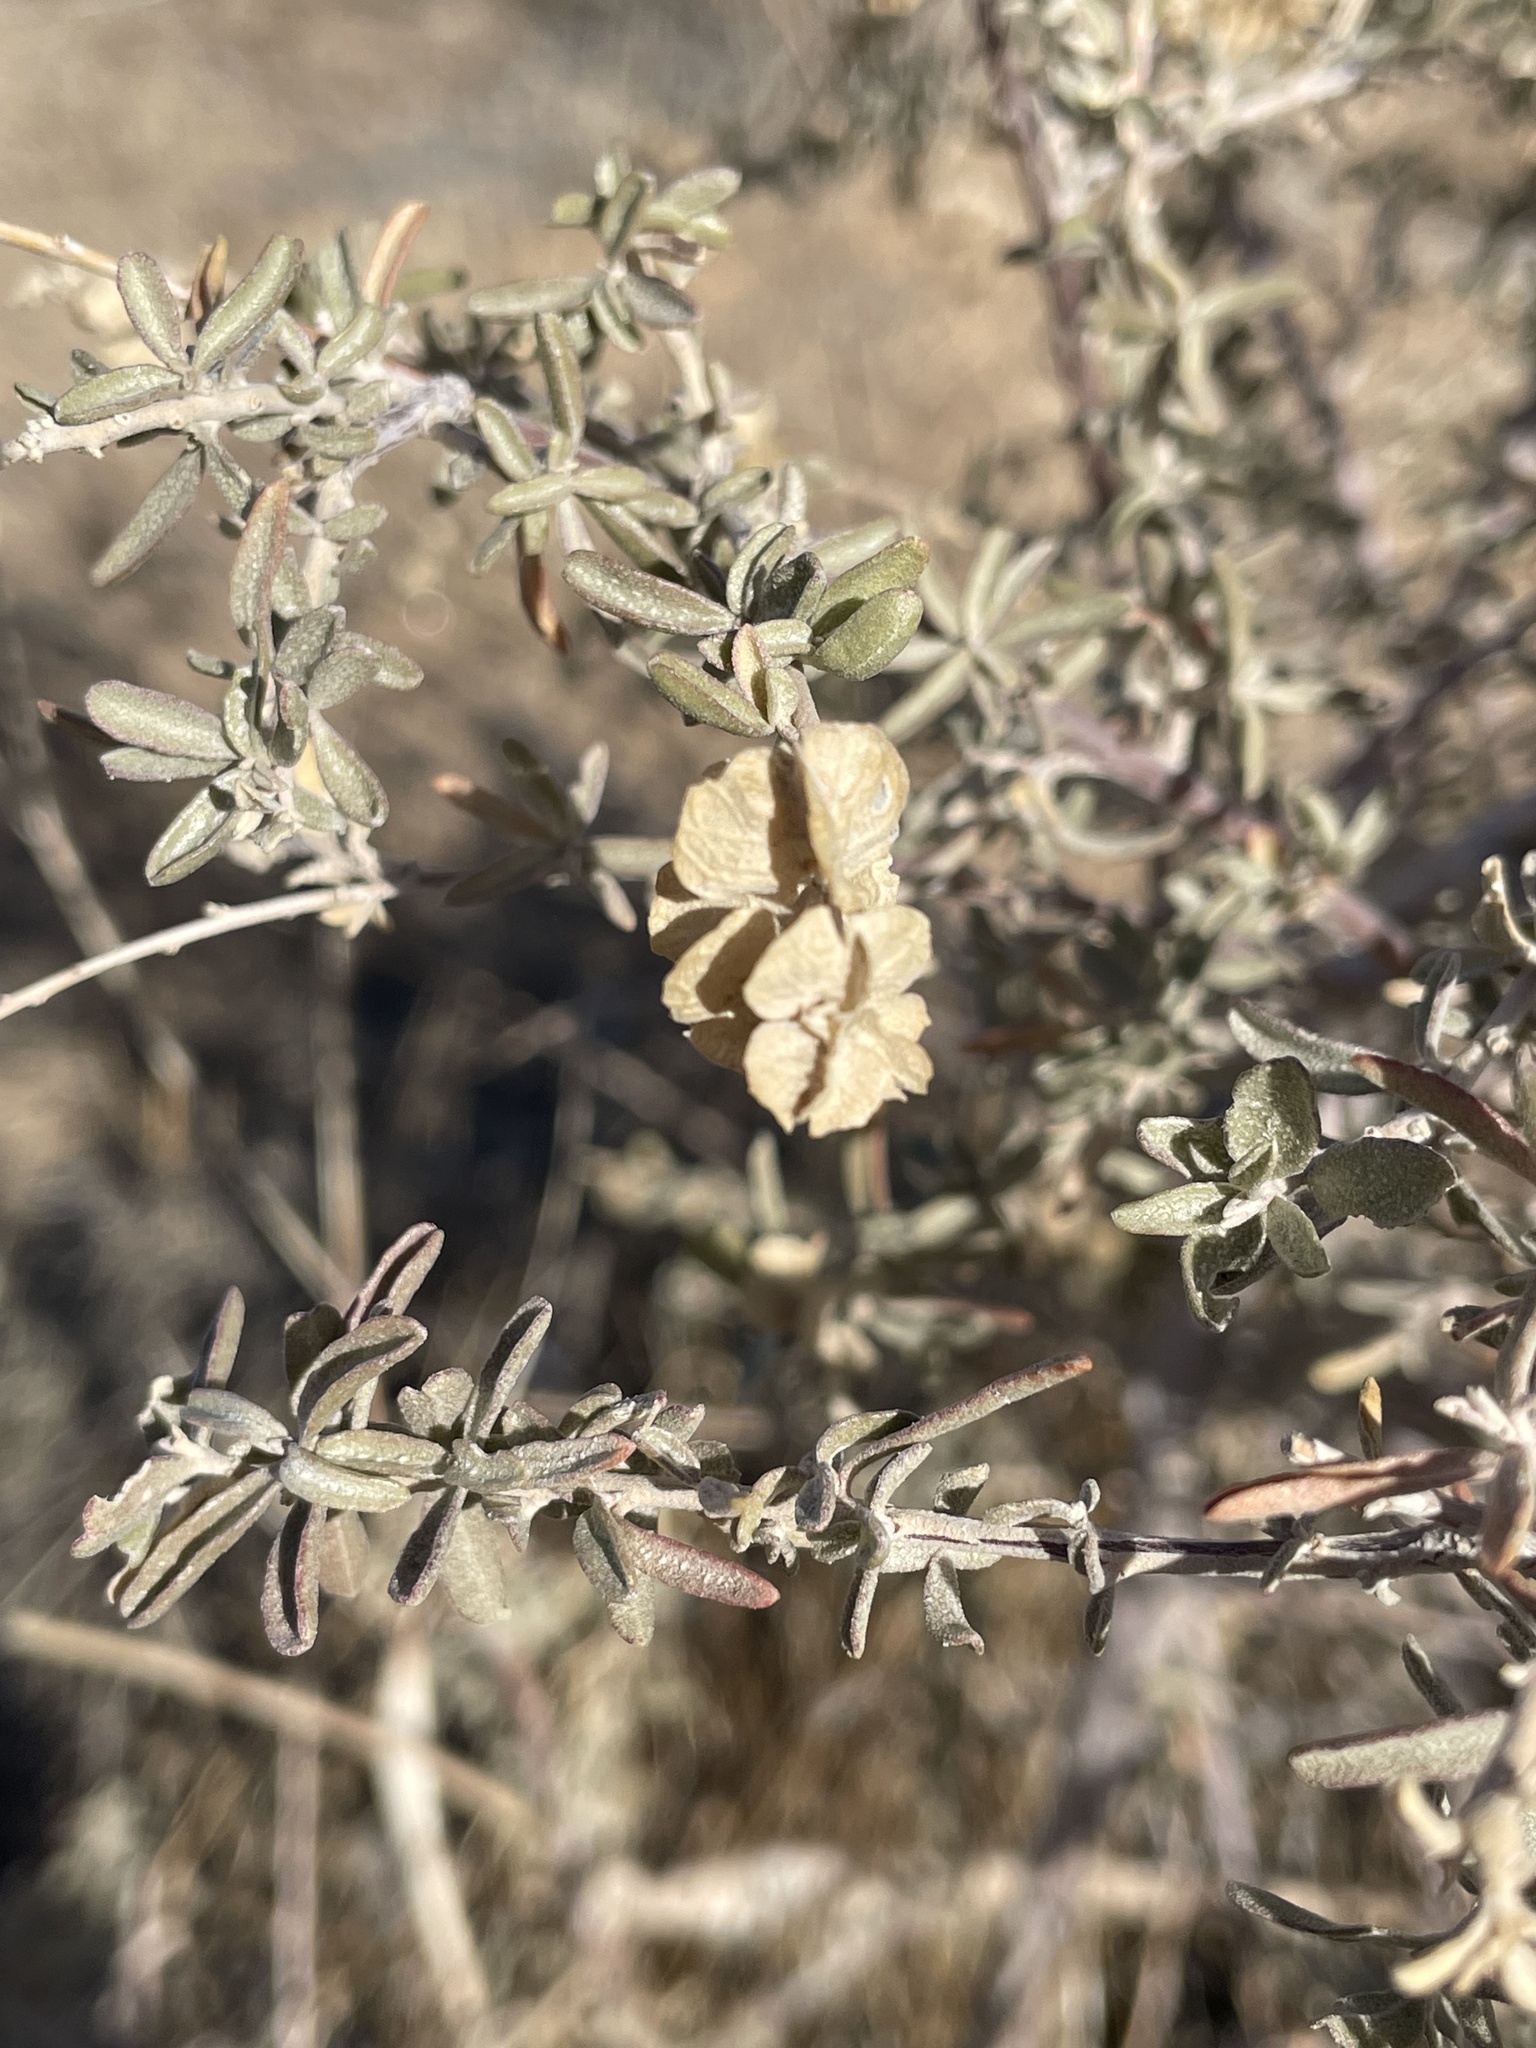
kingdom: Plantae
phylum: Tracheophyta
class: Magnoliopsida
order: Caryophyllales
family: Amaranthaceae
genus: Atriplex
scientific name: Atriplex canescens
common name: Four-wing saltbush
